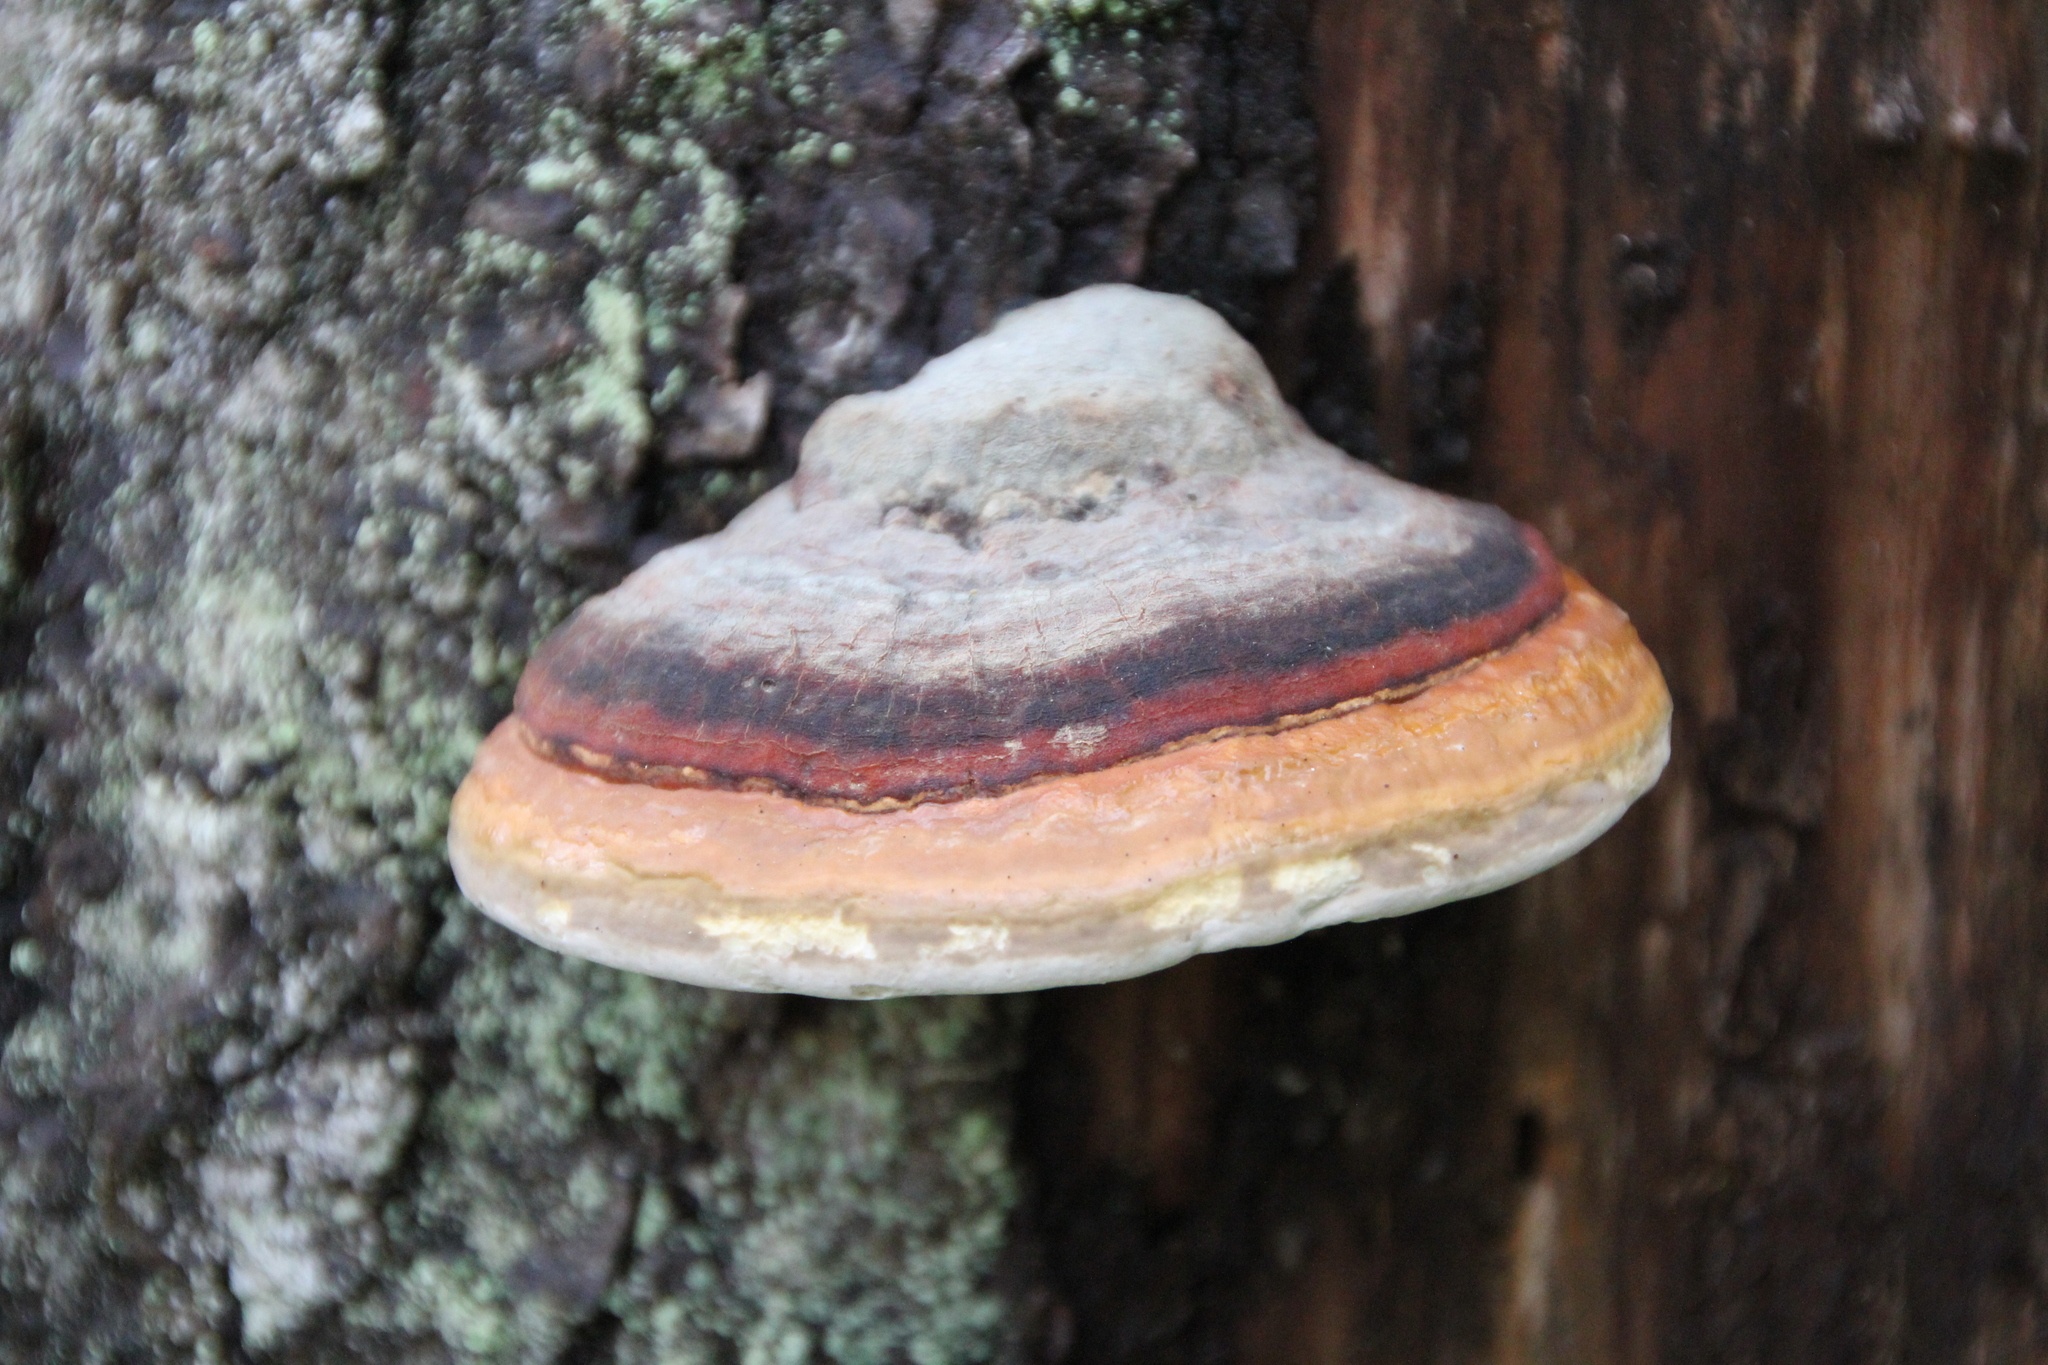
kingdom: Fungi
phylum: Basidiomycota
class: Agaricomycetes
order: Polyporales
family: Fomitopsidaceae
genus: Fomitopsis
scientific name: Fomitopsis pinicola
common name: Red-belted bracket
